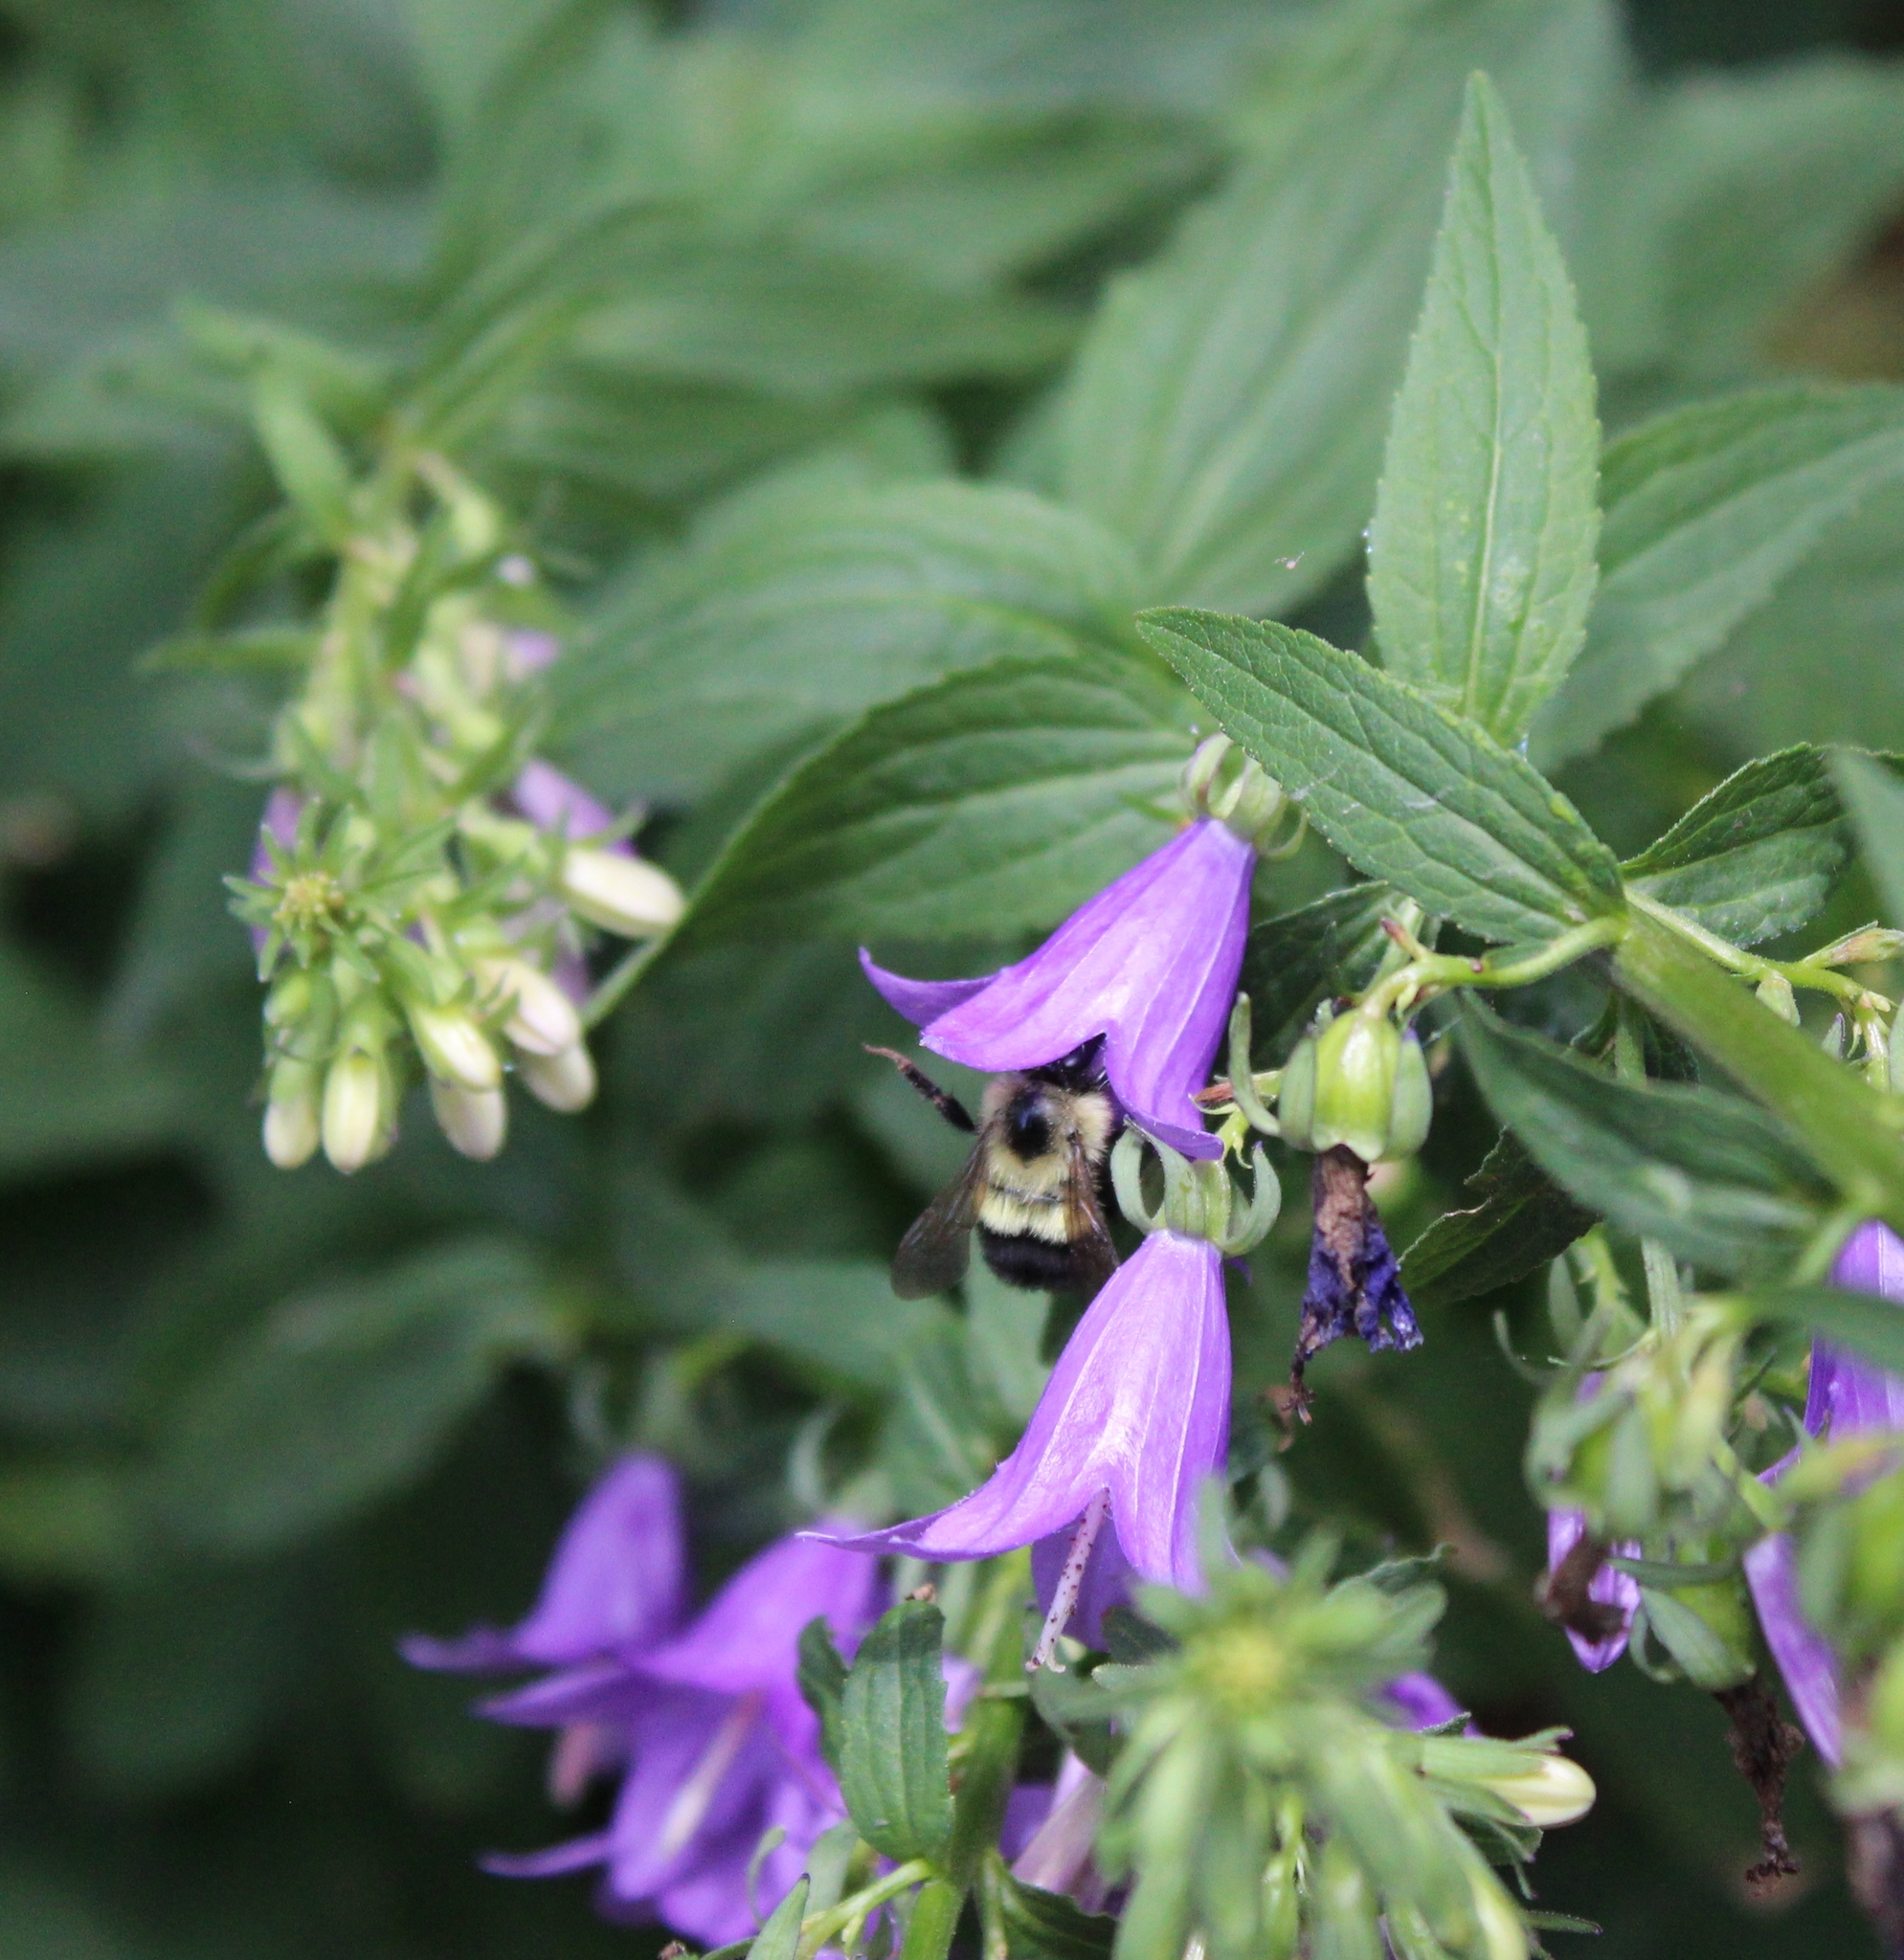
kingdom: Animalia
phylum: Arthropoda
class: Insecta
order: Hymenoptera
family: Apidae
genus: Bombus
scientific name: Bombus vagans
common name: Half-black bumble bee
